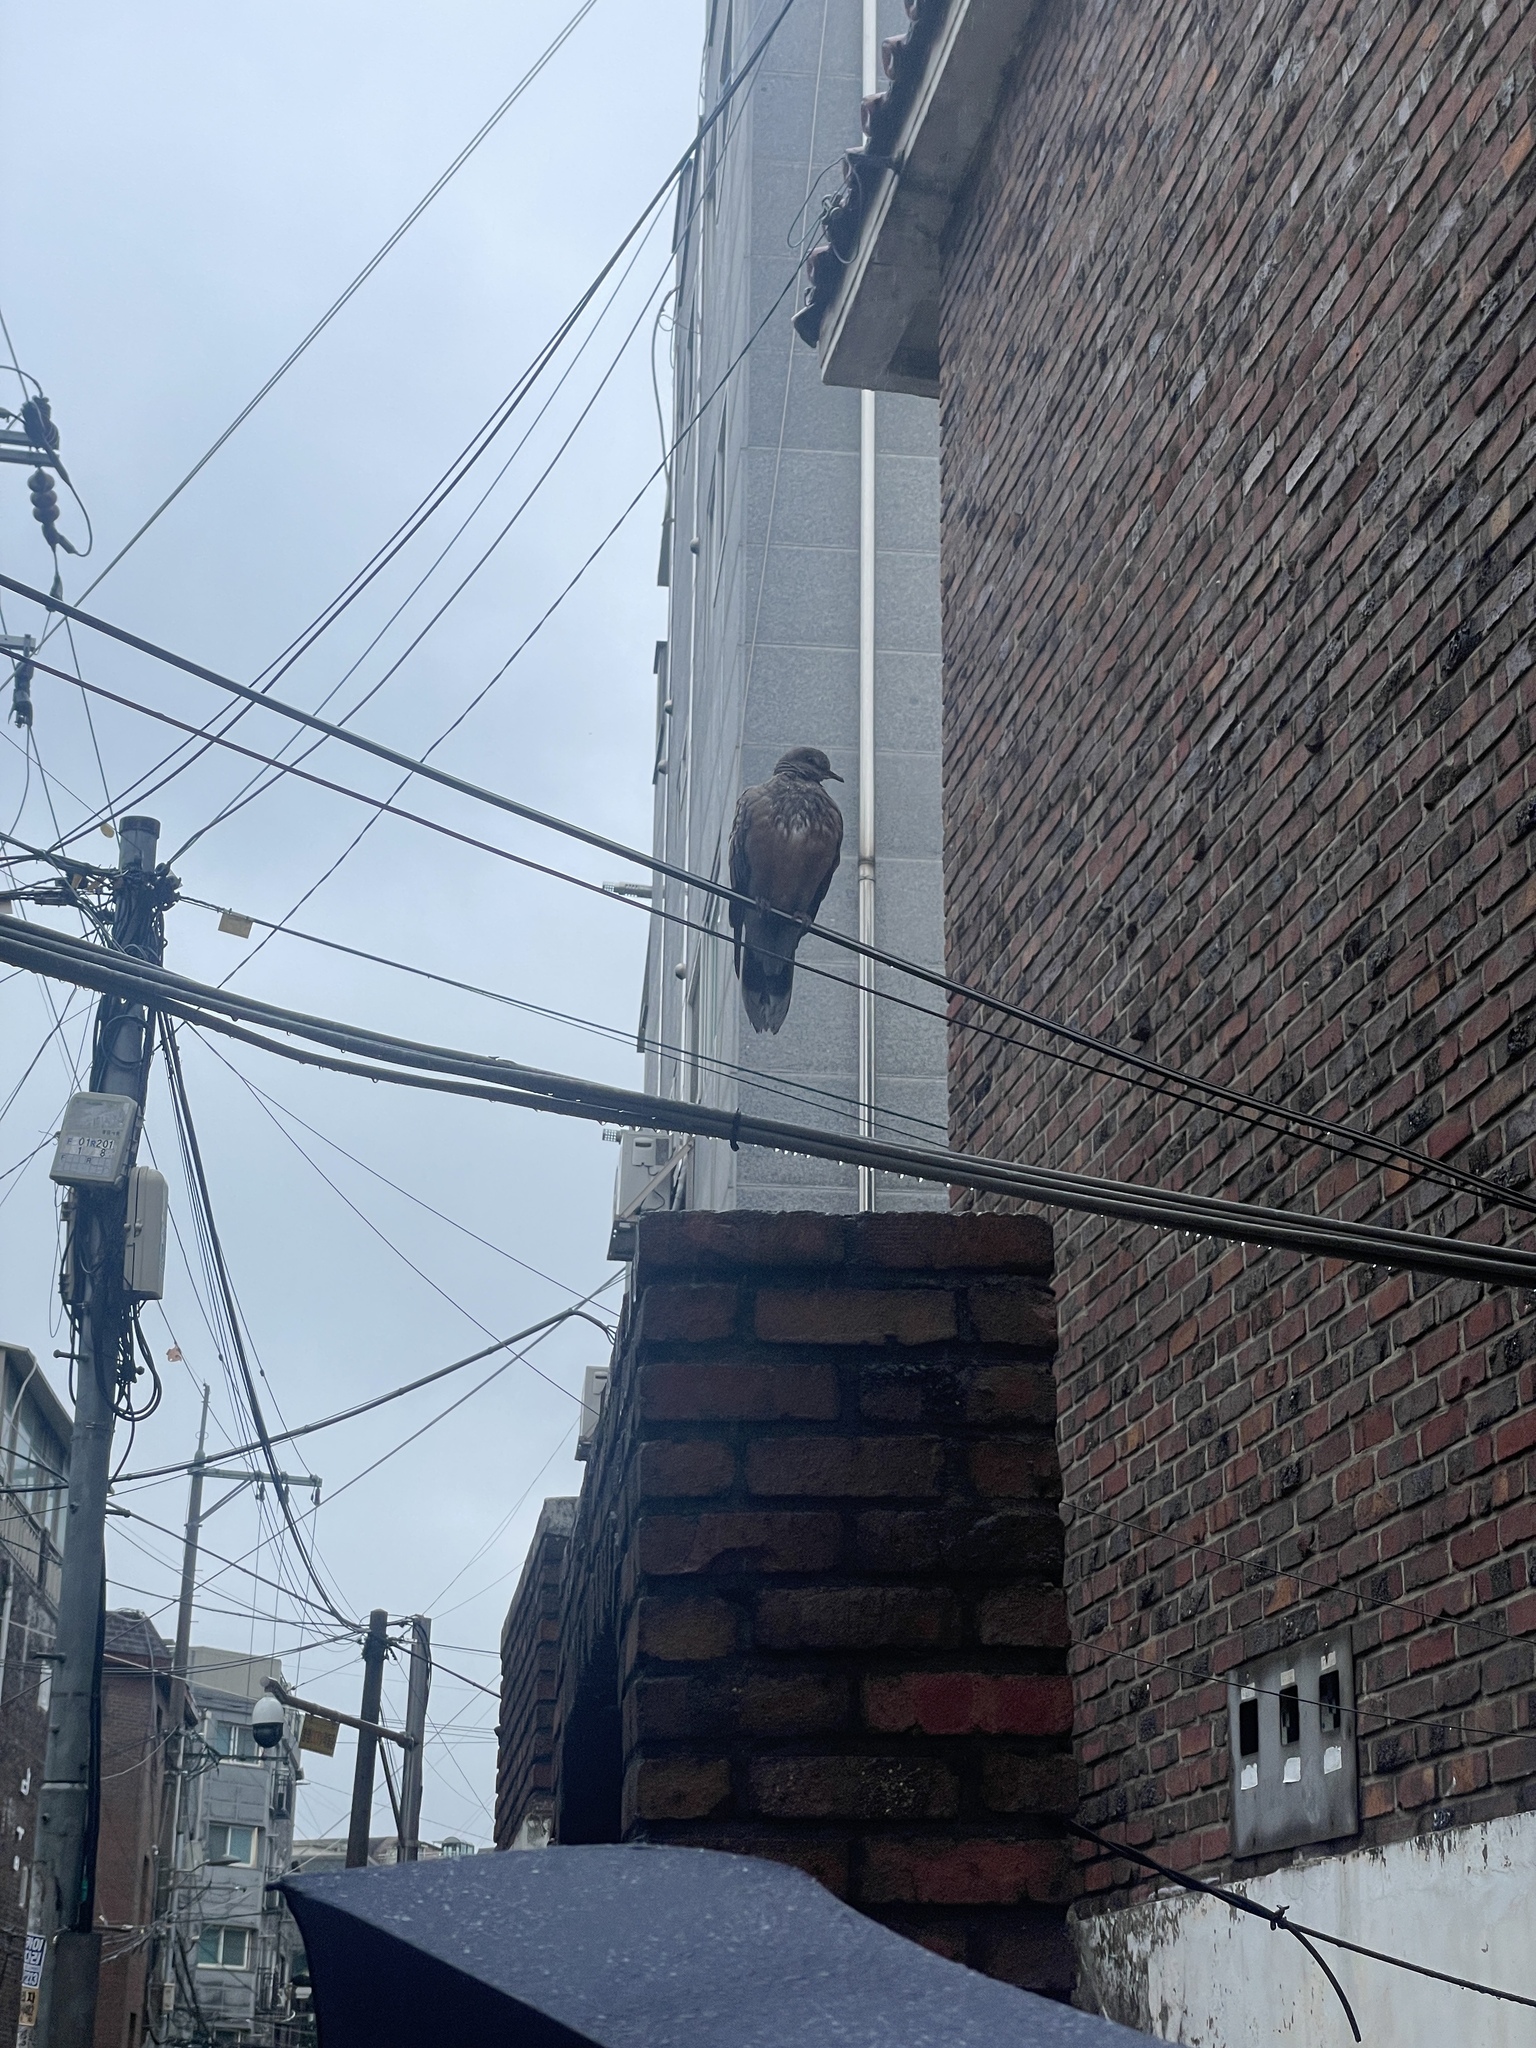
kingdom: Animalia
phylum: Chordata
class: Aves
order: Columbiformes
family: Columbidae
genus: Streptopelia
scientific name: Streptopelia orientalis
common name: Oriental turtle dove
